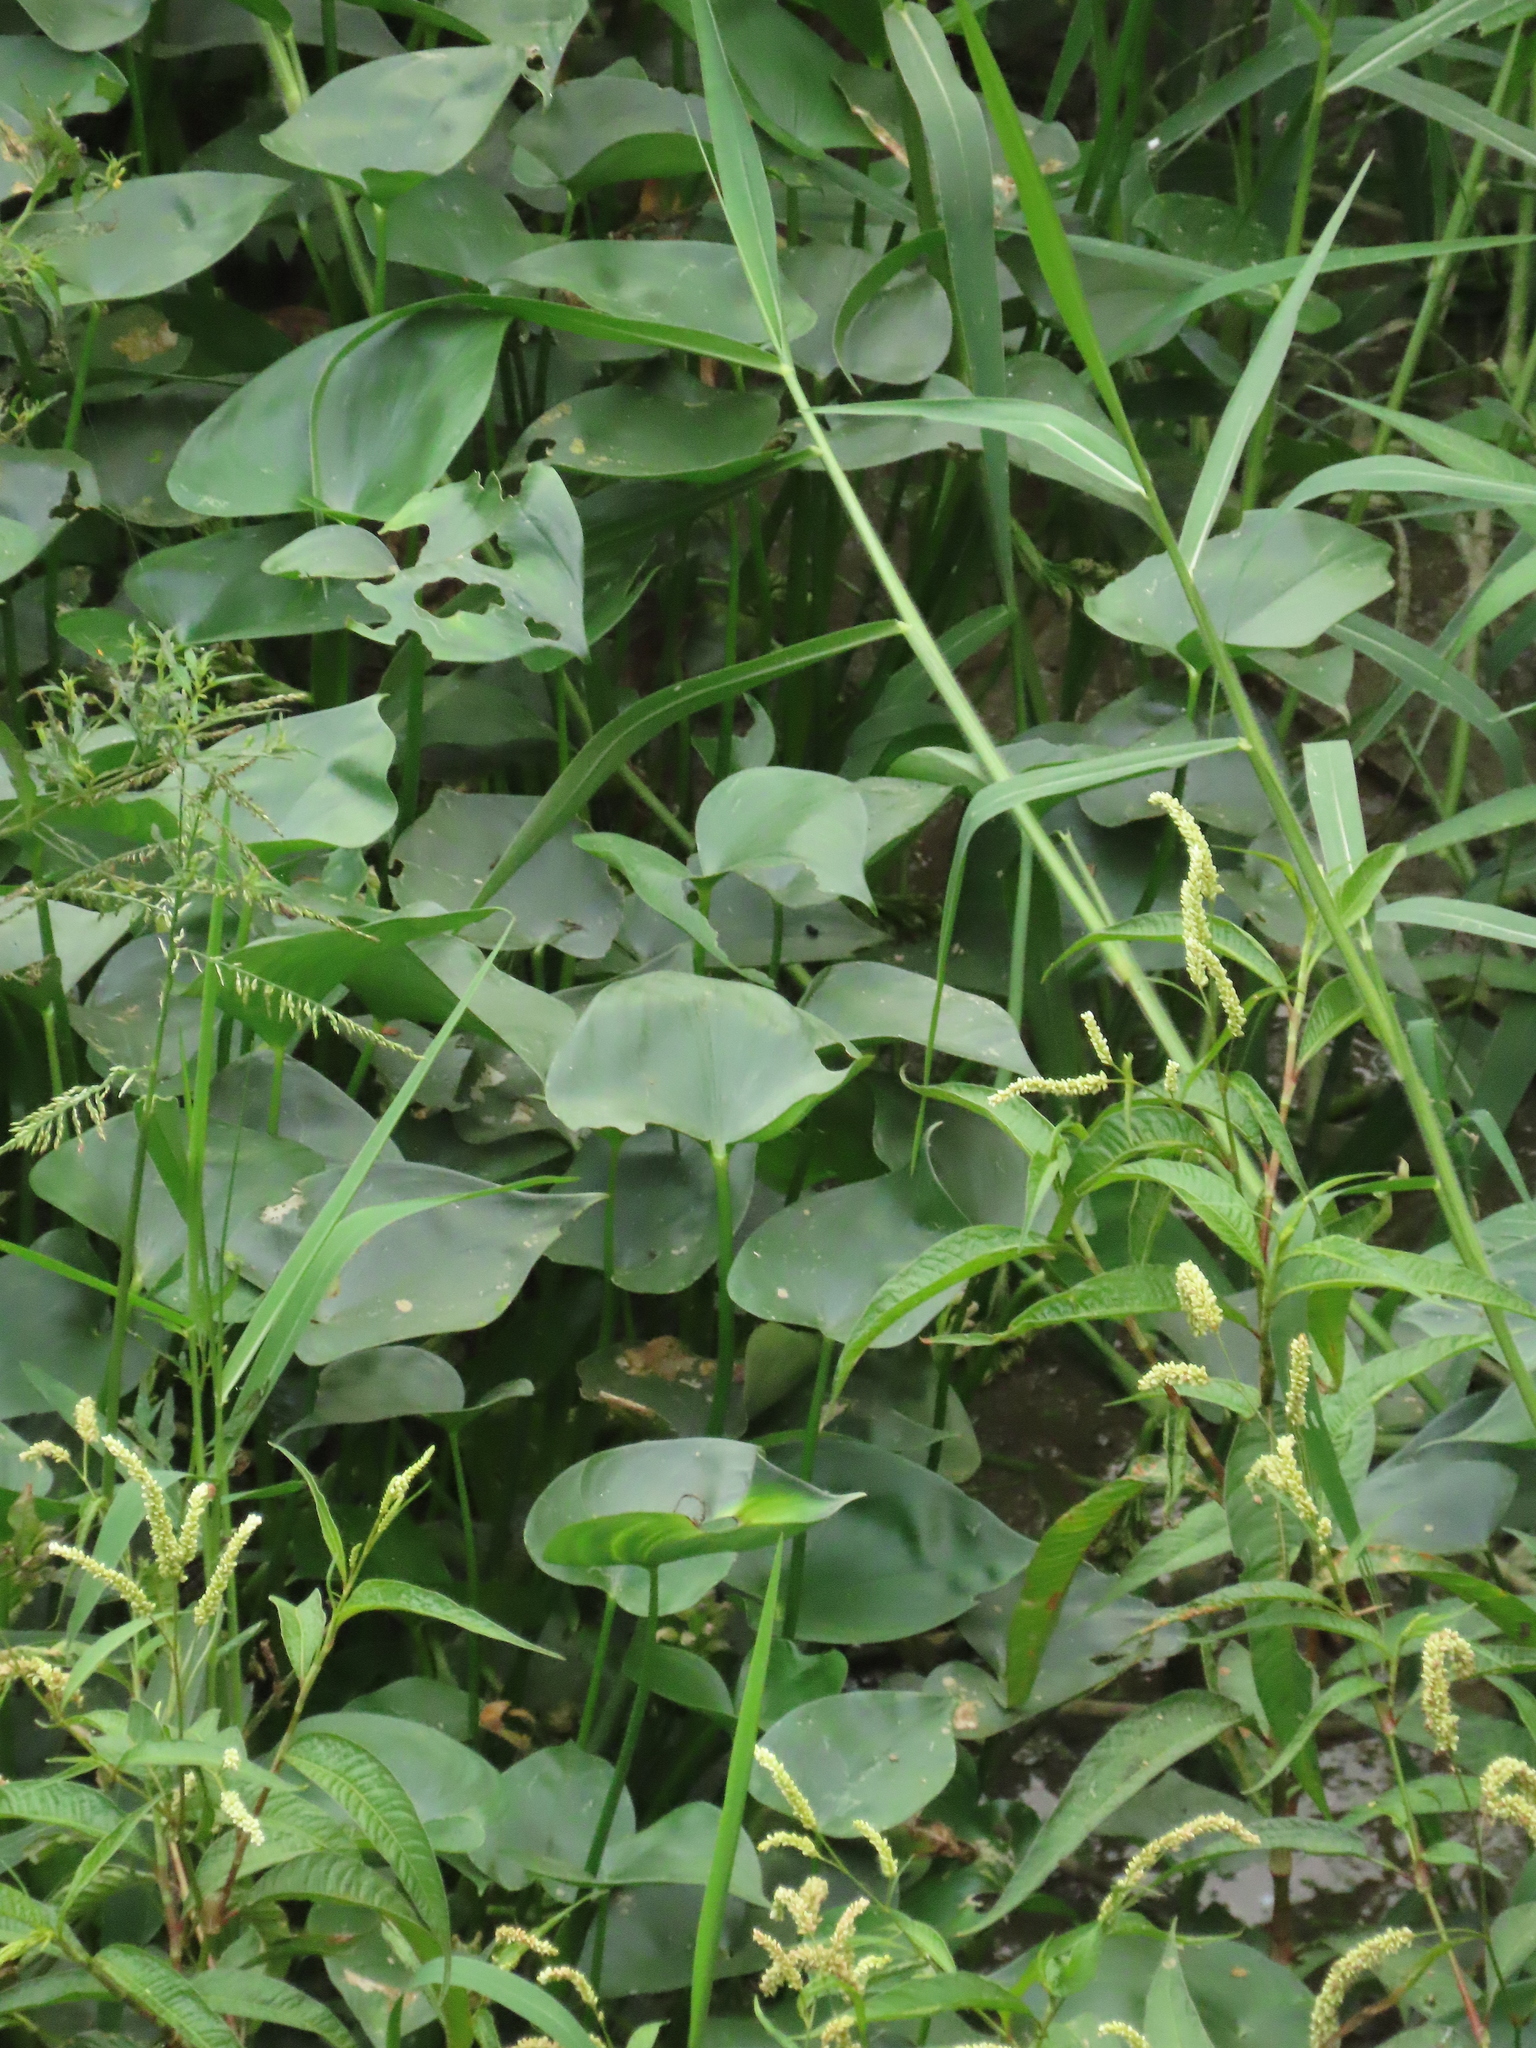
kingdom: Plantae
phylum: Tracheophyta
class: Liliopsida
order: Commelinales
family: Pontederiaceae
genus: Pontederia
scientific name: Pontederia vaginalis
